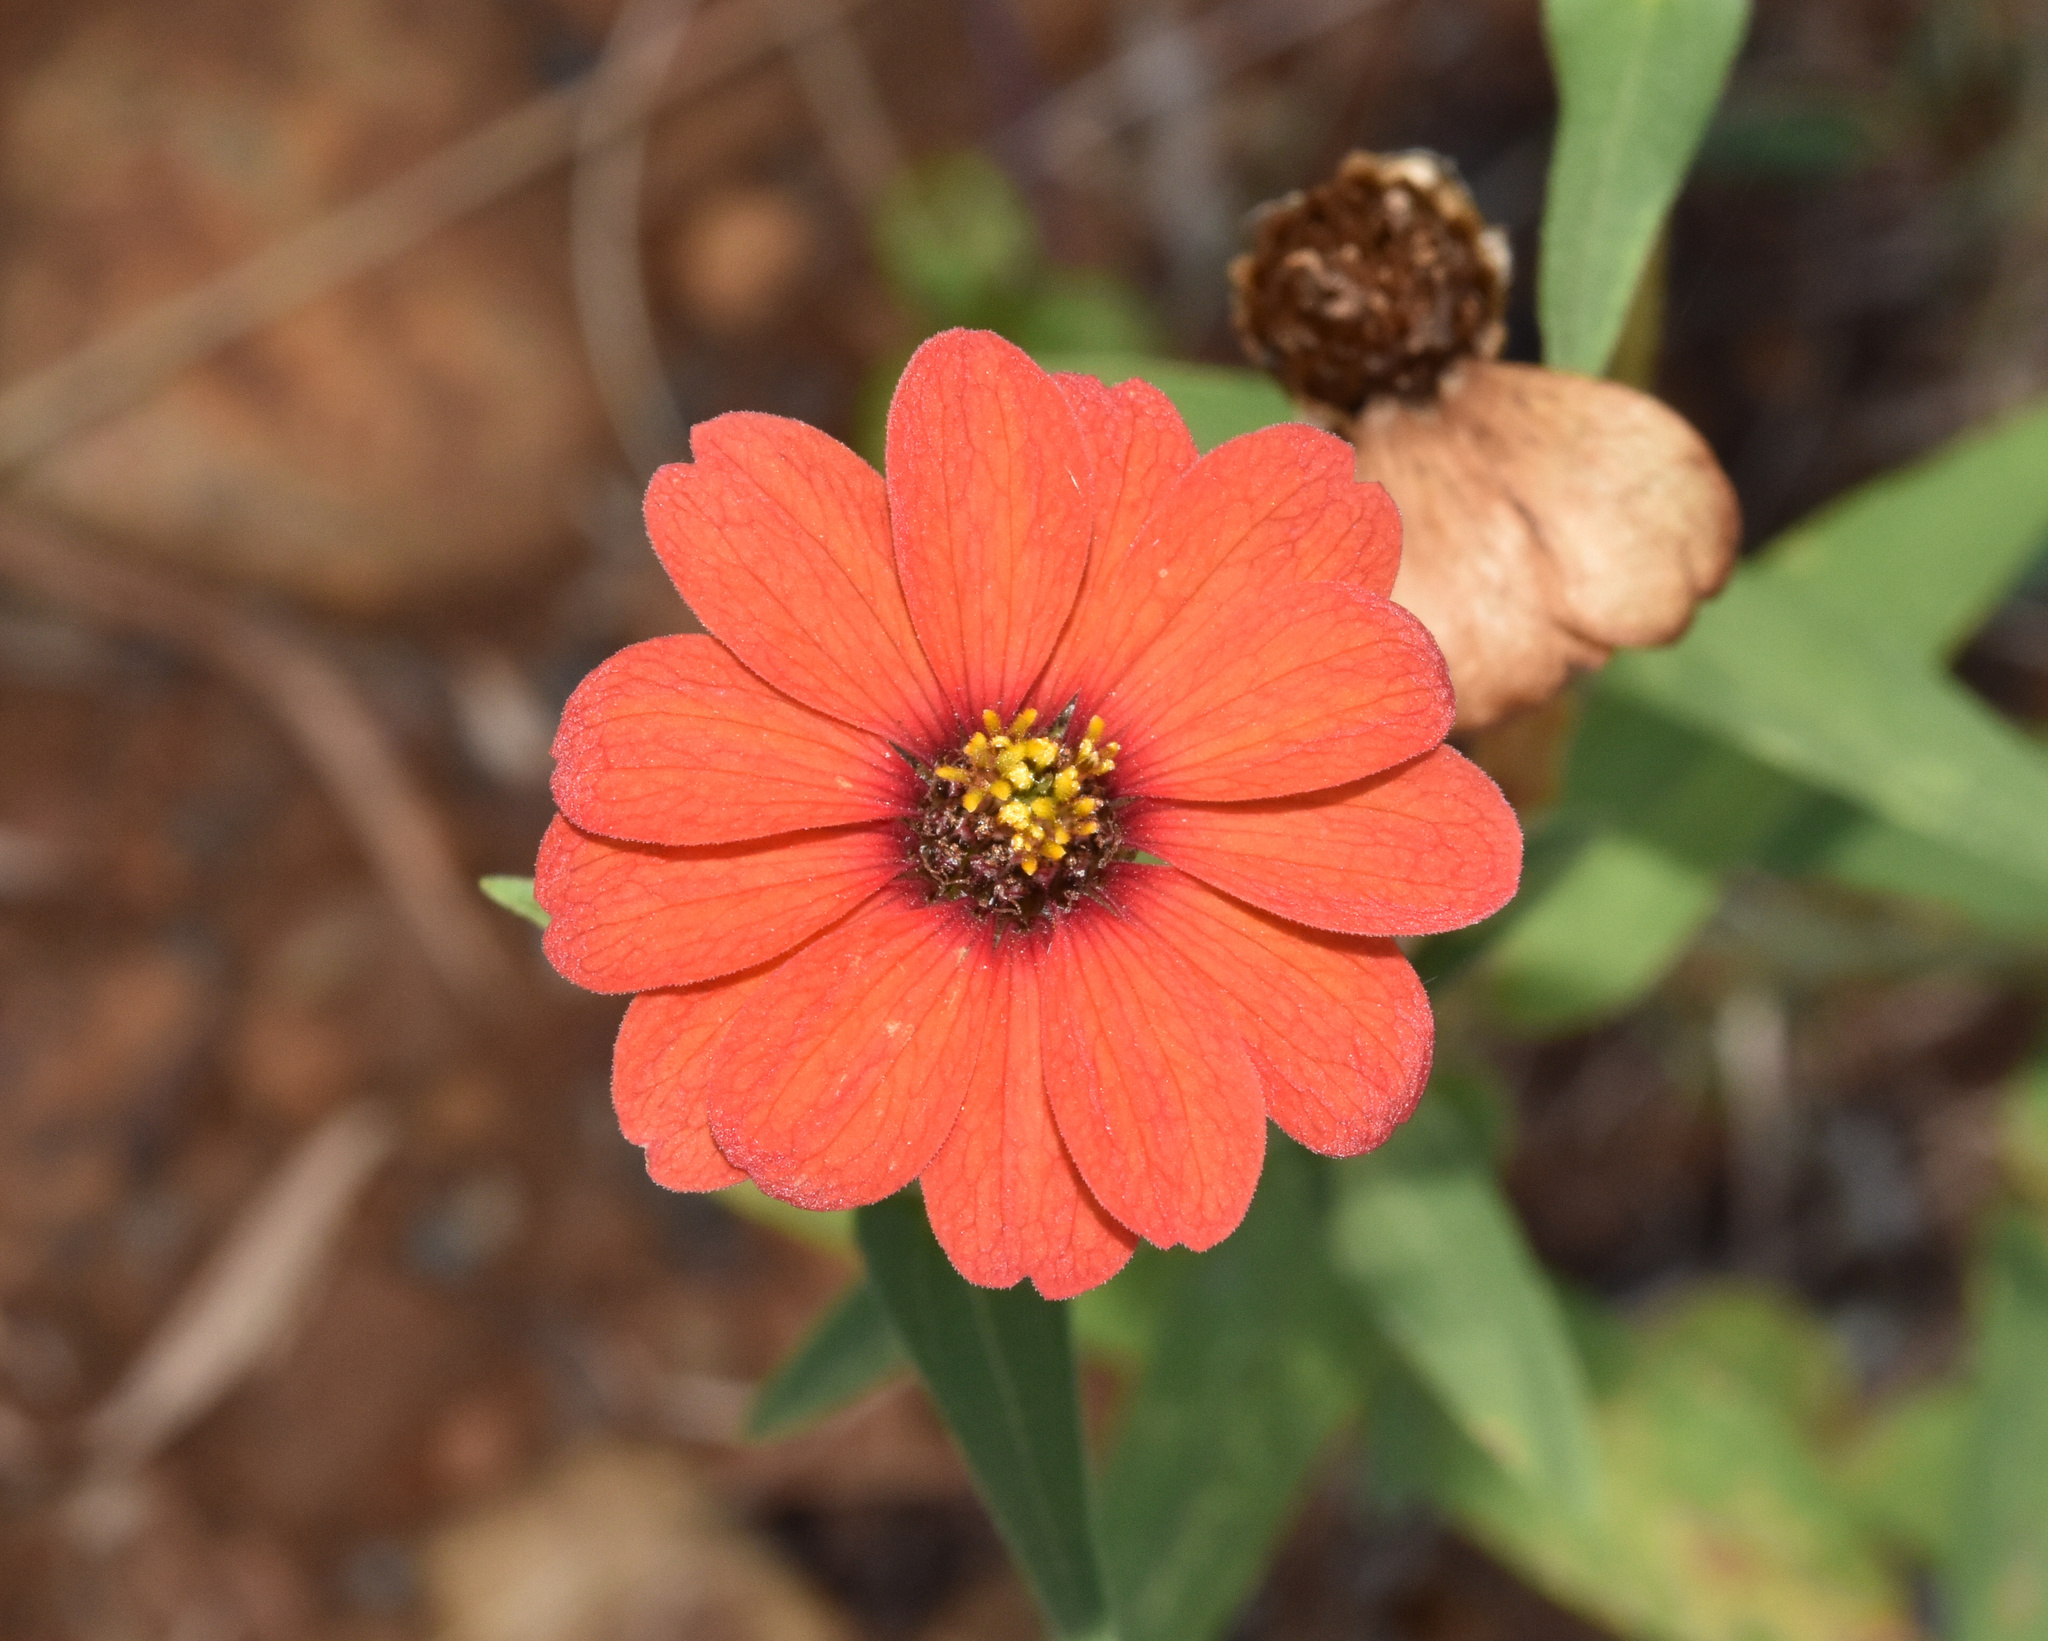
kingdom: Plantae
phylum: Tracheophyta
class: Magnoliopsida
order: Asterales
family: Asteraceae
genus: Zinnia
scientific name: Zinnia peruviana
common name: Peruvian zinnia
